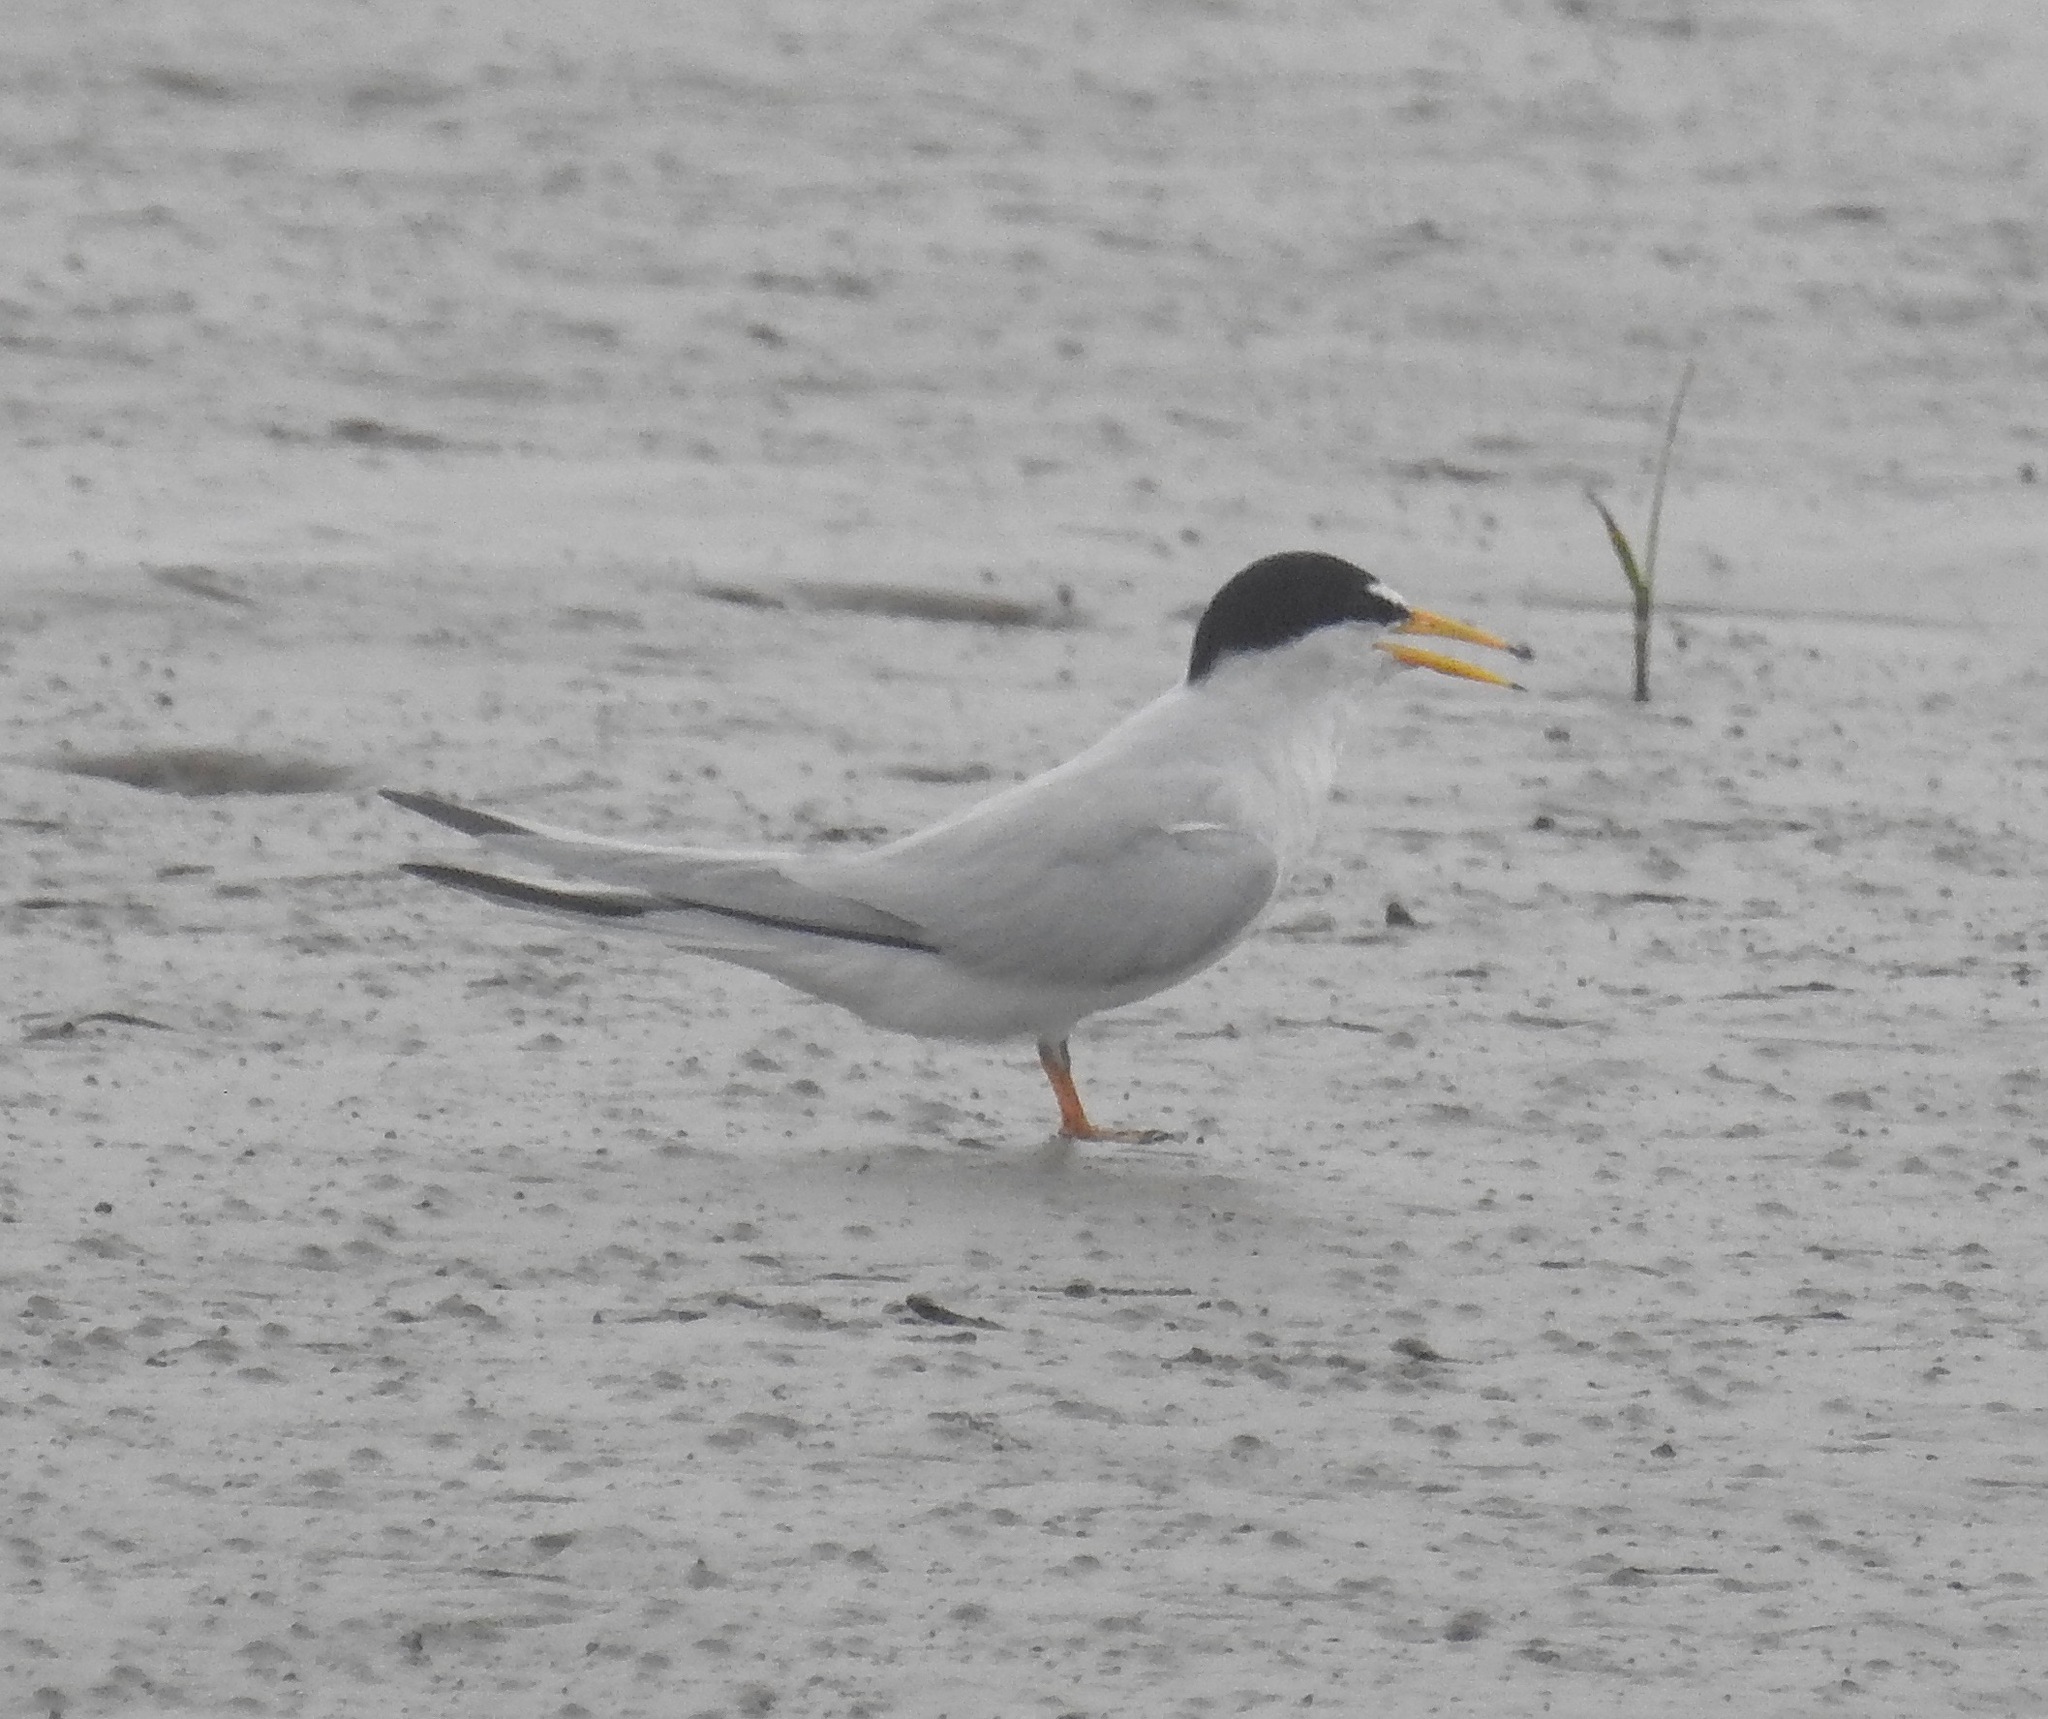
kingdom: Animalia
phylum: Chordata
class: Aves
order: Charadriiformes
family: Laridae
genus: Sternula
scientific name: Sternula antillarum
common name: Least tern
